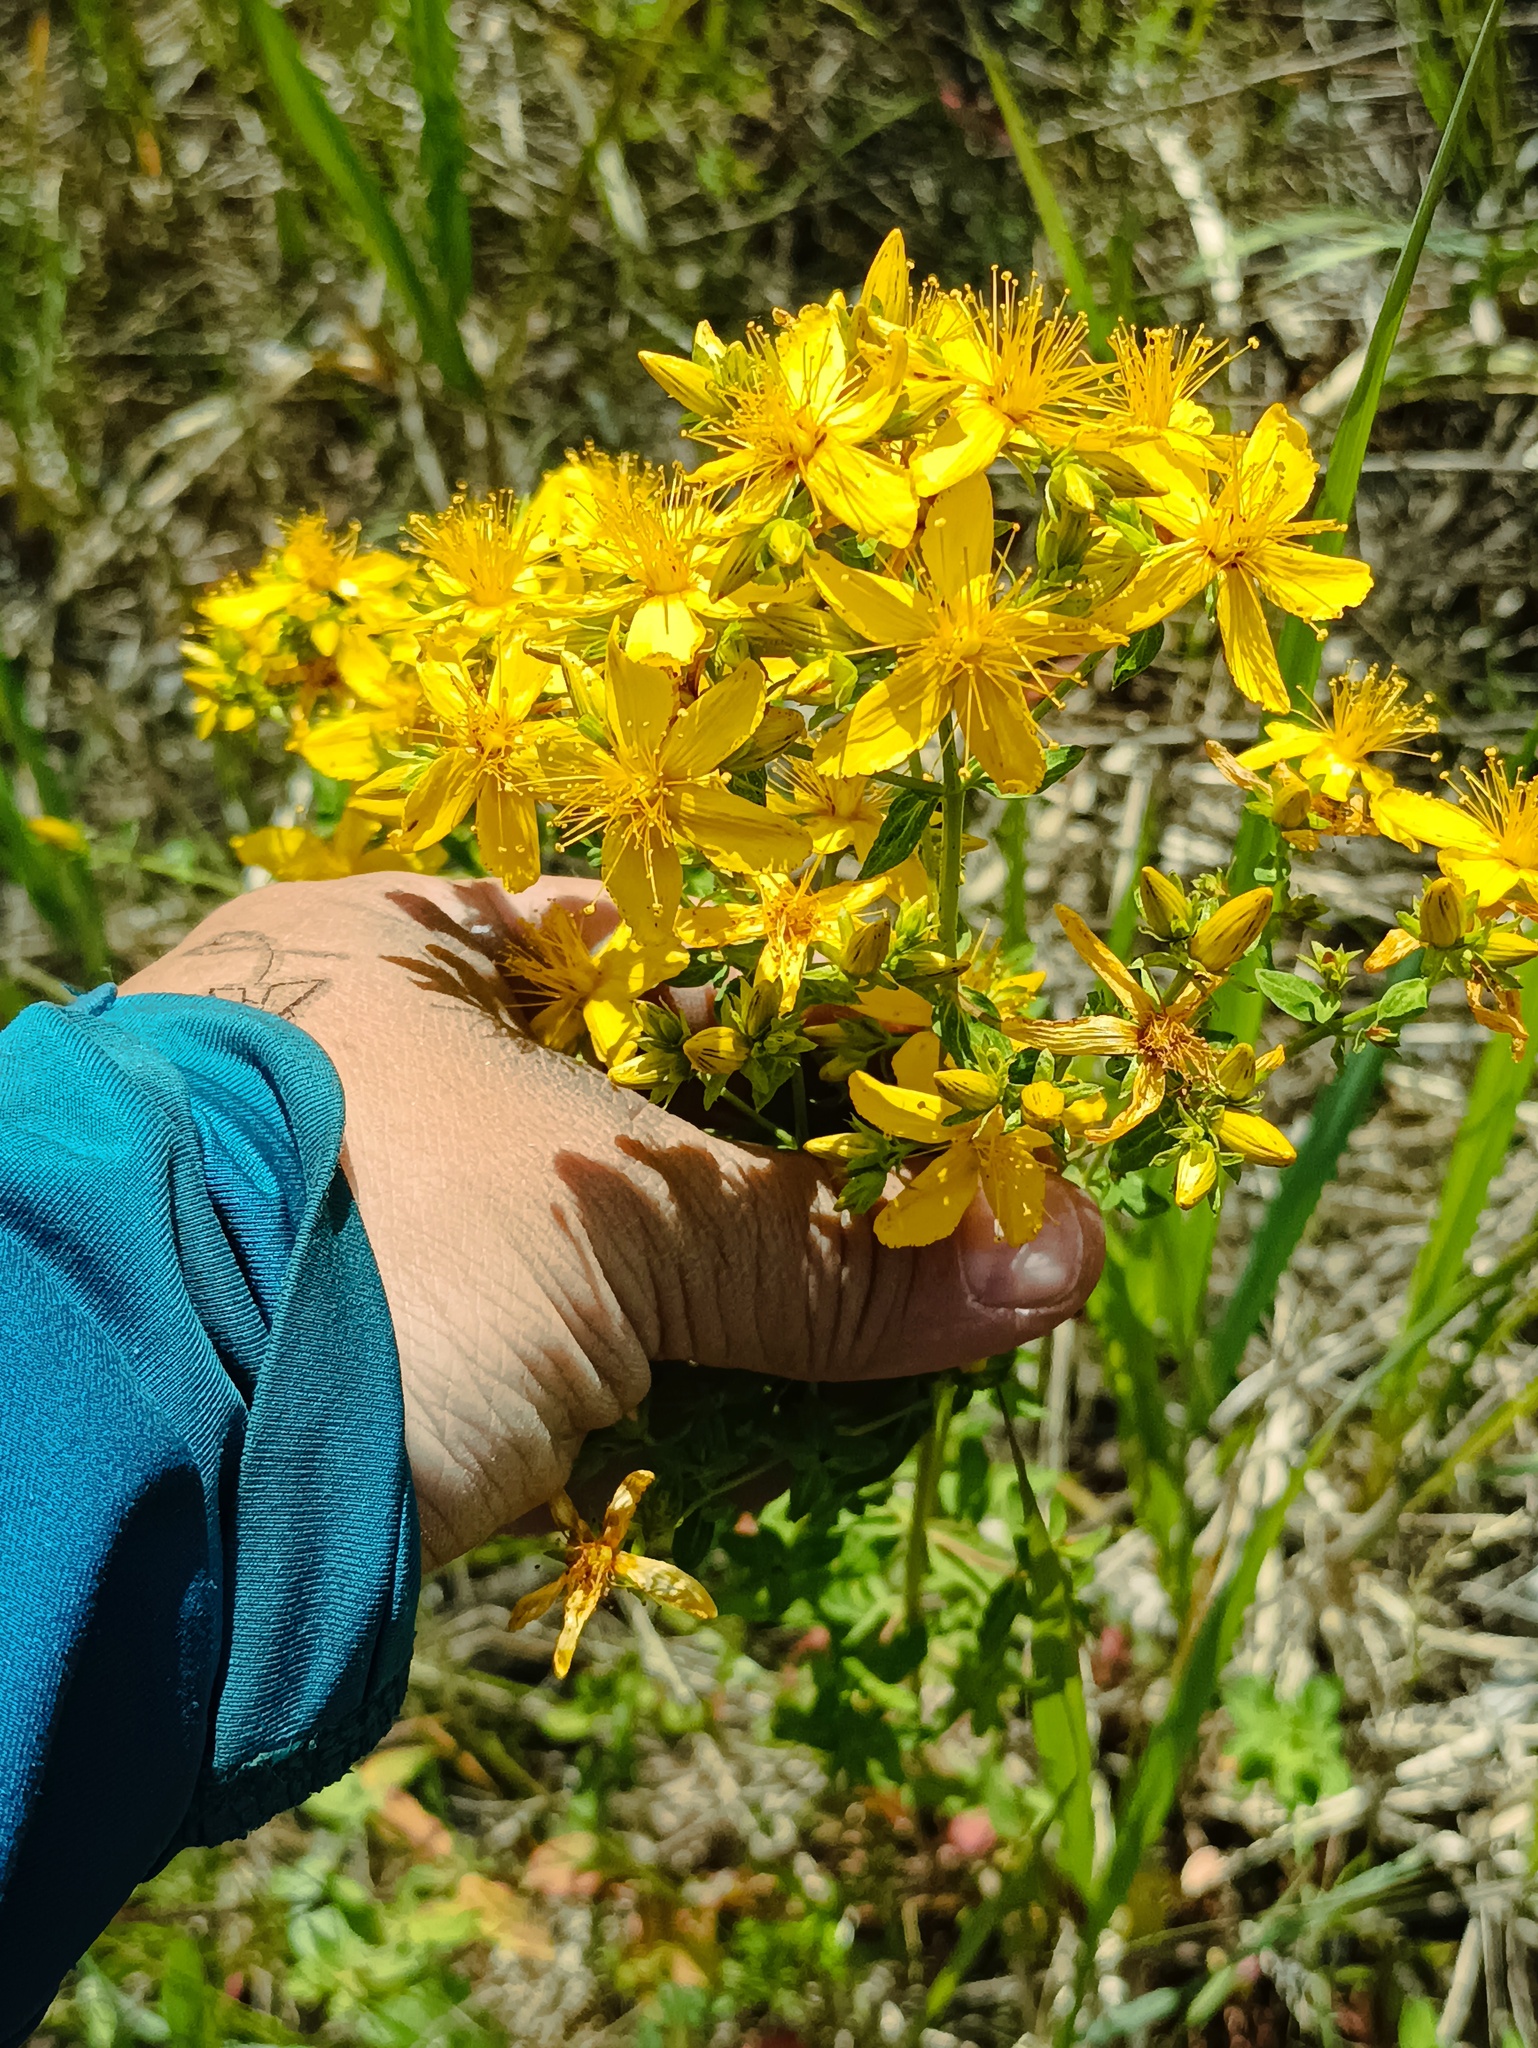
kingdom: Plantae
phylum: Tracheophyta
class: Magnoliopsida
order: Malpighiales
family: Hypericaceae
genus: Hypericum
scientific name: Hypericum perforatum
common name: Common st. johnswort
